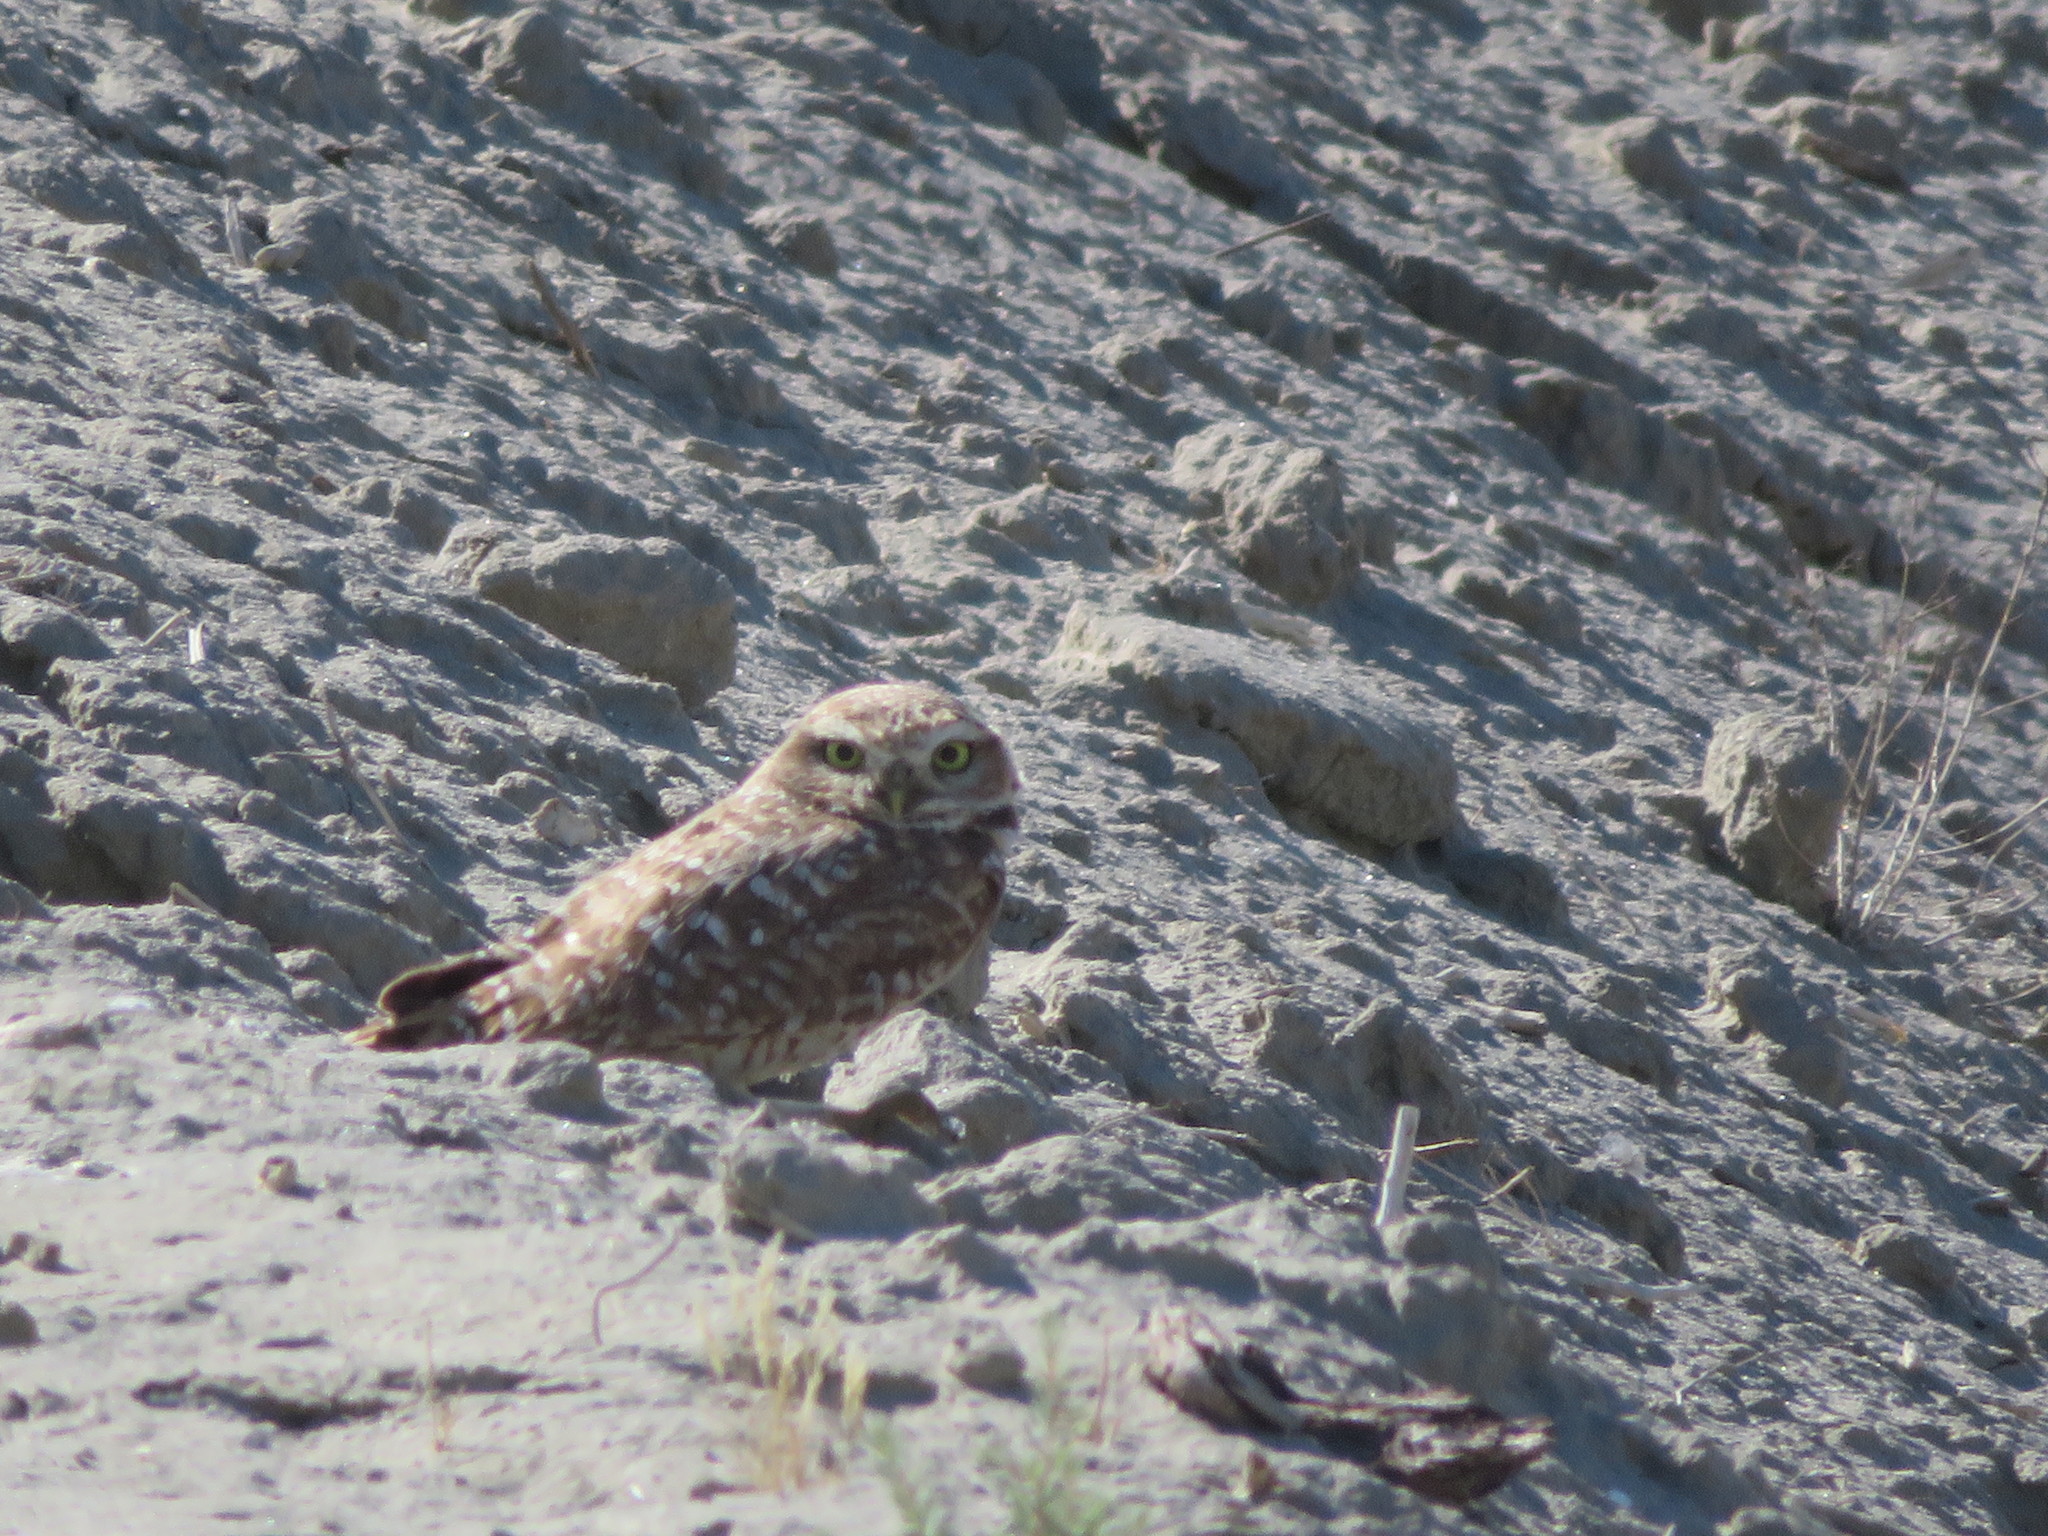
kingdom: Animalia
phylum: Chordata
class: Aves
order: Strigiformes
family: Strigidae
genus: Athene
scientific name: Athene cunicularia
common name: Burrowing owl
